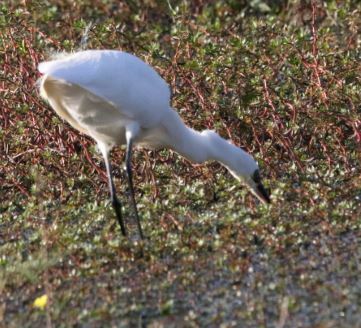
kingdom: Animalia
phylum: Chordata
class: Aves
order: Pelecaniformes
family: Ardeidae
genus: Egretta
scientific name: Egretta garzetta
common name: Little egret
